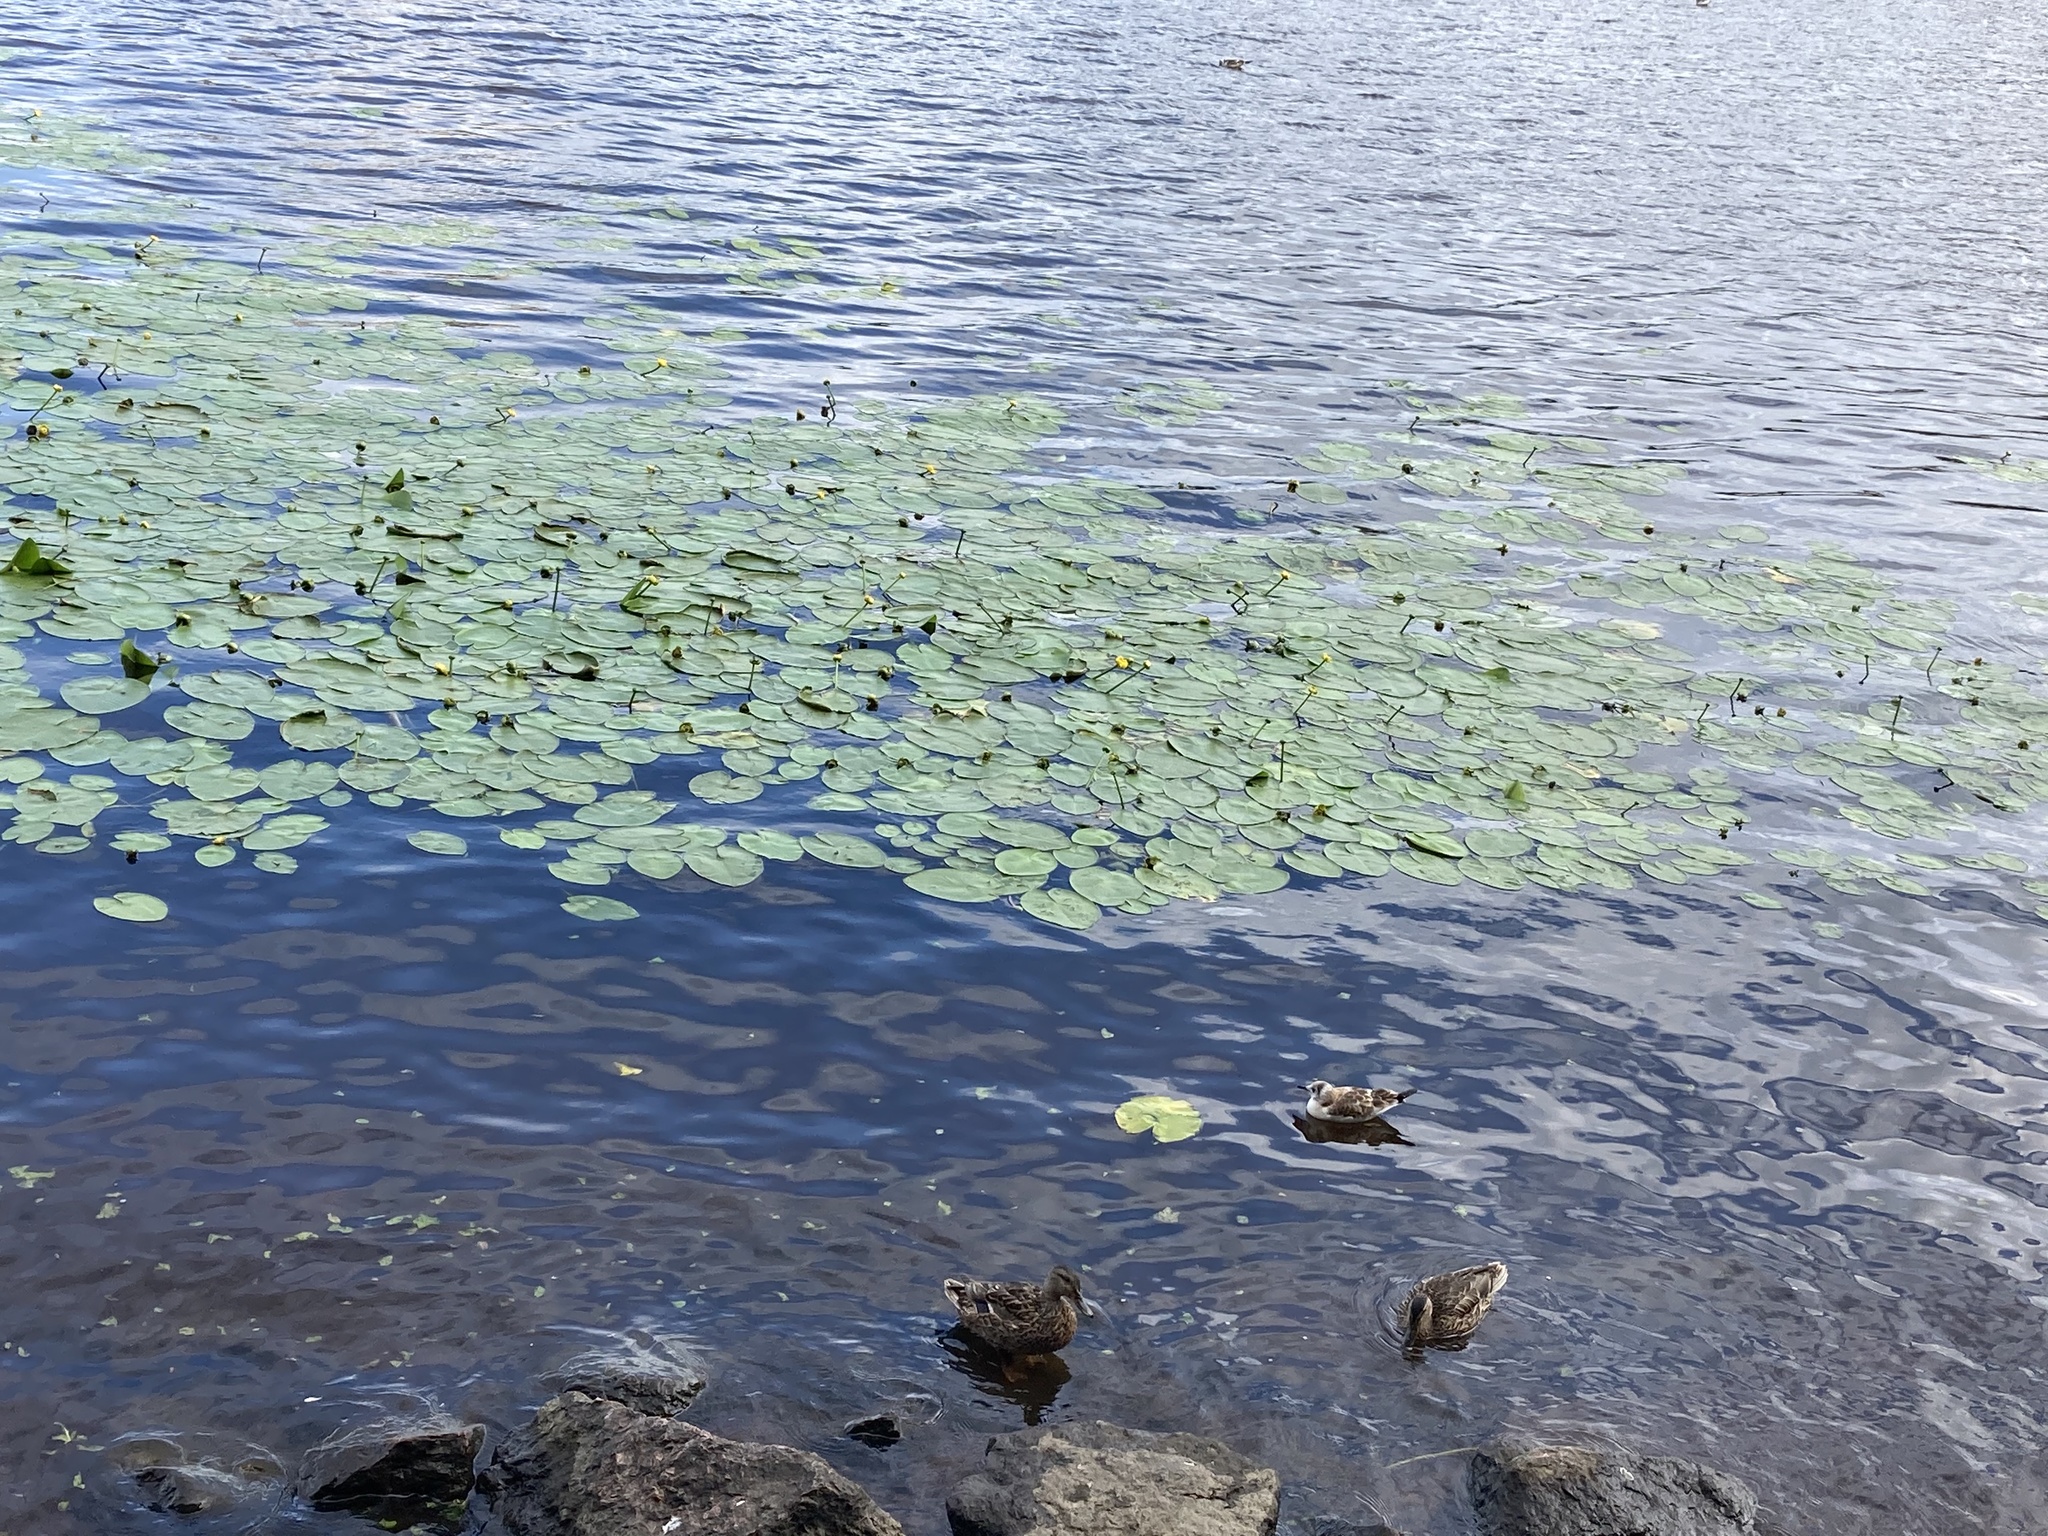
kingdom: Plantae
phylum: Tracheophyta
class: Magnoliopsida
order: Nymphaeales
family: Nymphaeaceae
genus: Nuphar
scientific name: Nuphar lutea
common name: Yellow water-lily
